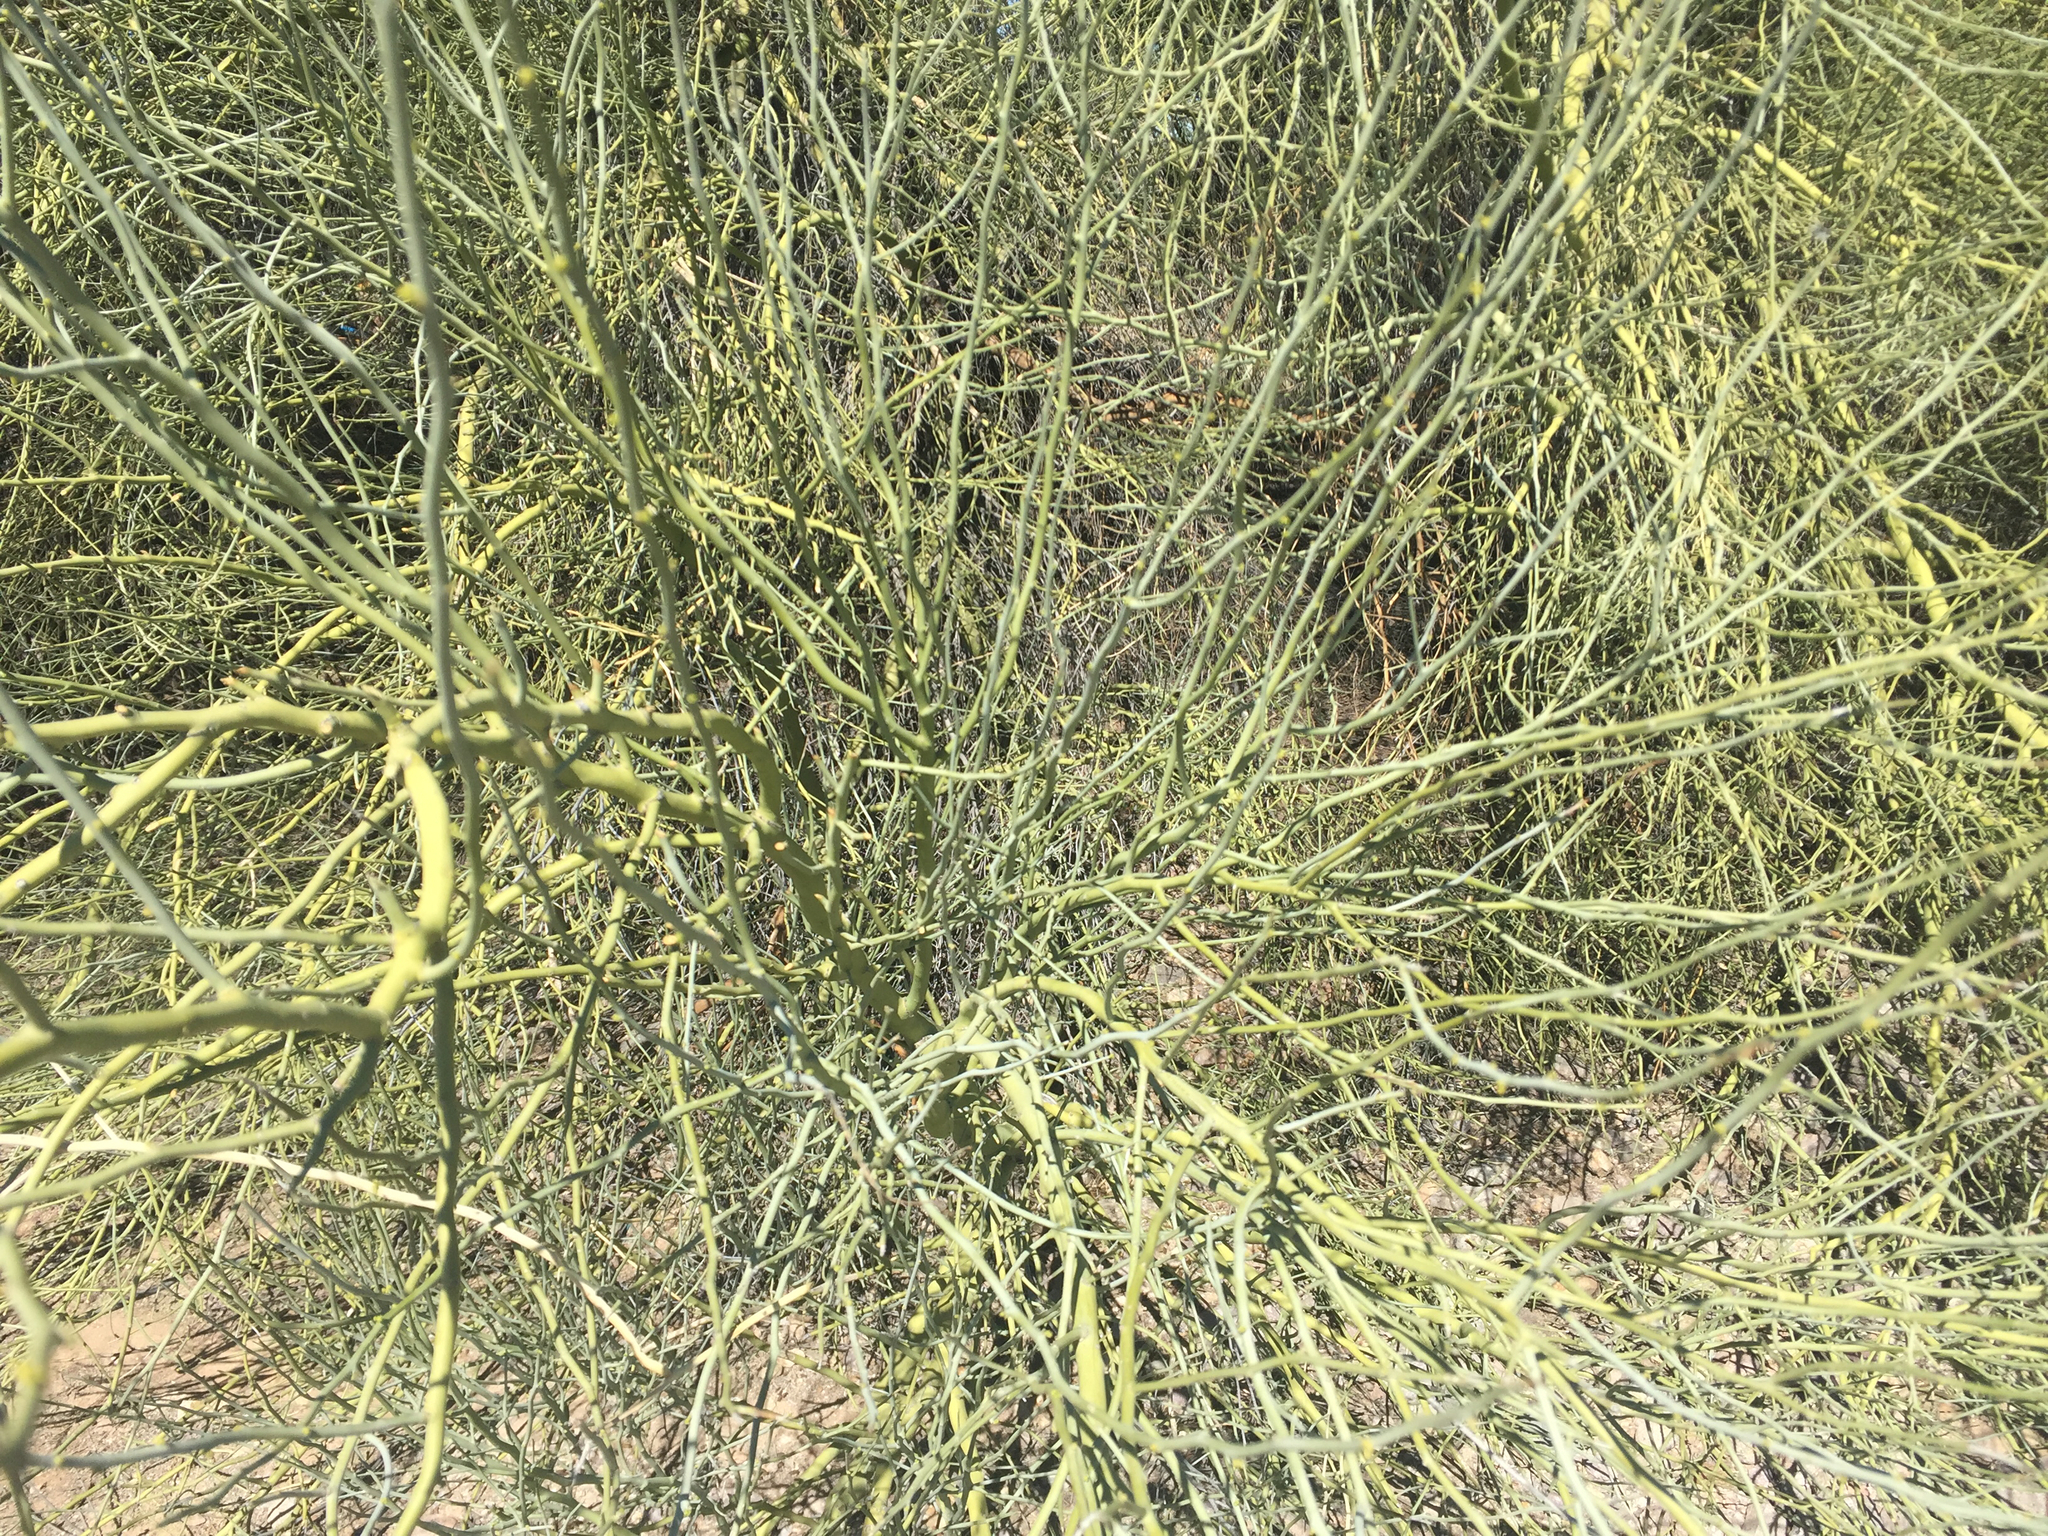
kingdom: Plantae
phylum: Tracheophyta
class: Magnoliopsida
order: Fabales
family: Fabaceae
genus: Parkinsonia
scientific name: Parkinsonia florida
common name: Blue paloverde
